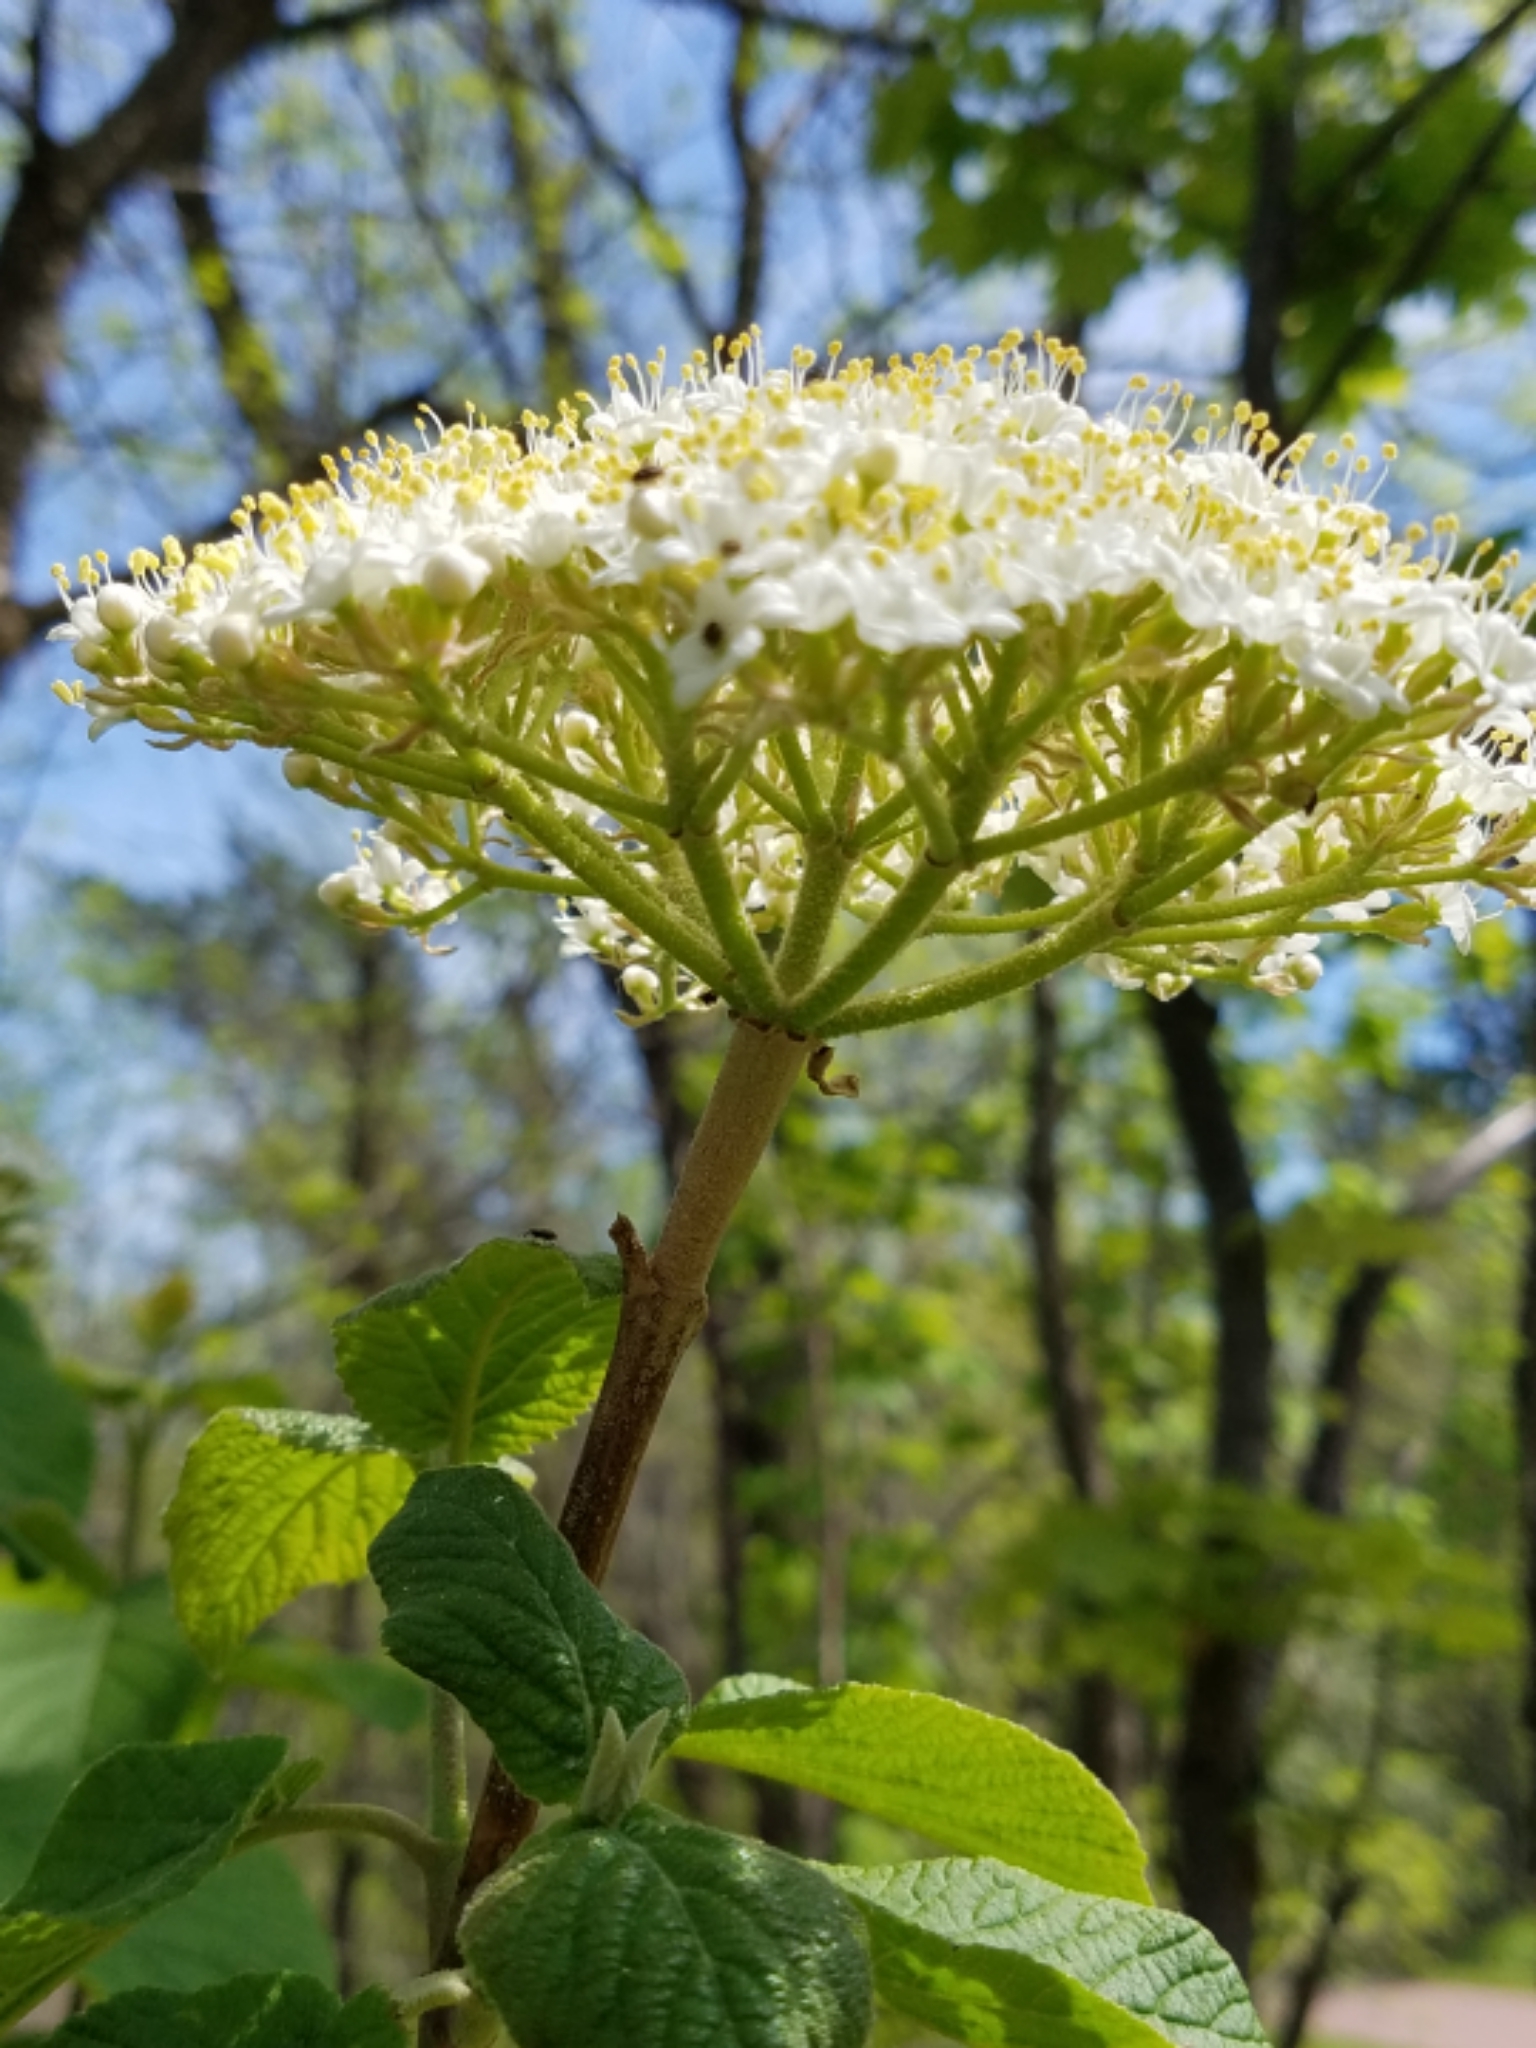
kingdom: Plantae
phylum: Tracheophyta
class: Magnoliopsida
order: Dipsacales
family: Viburnaceae
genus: Viburnum
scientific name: Viburnum lantana
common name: Wayfaring tree
